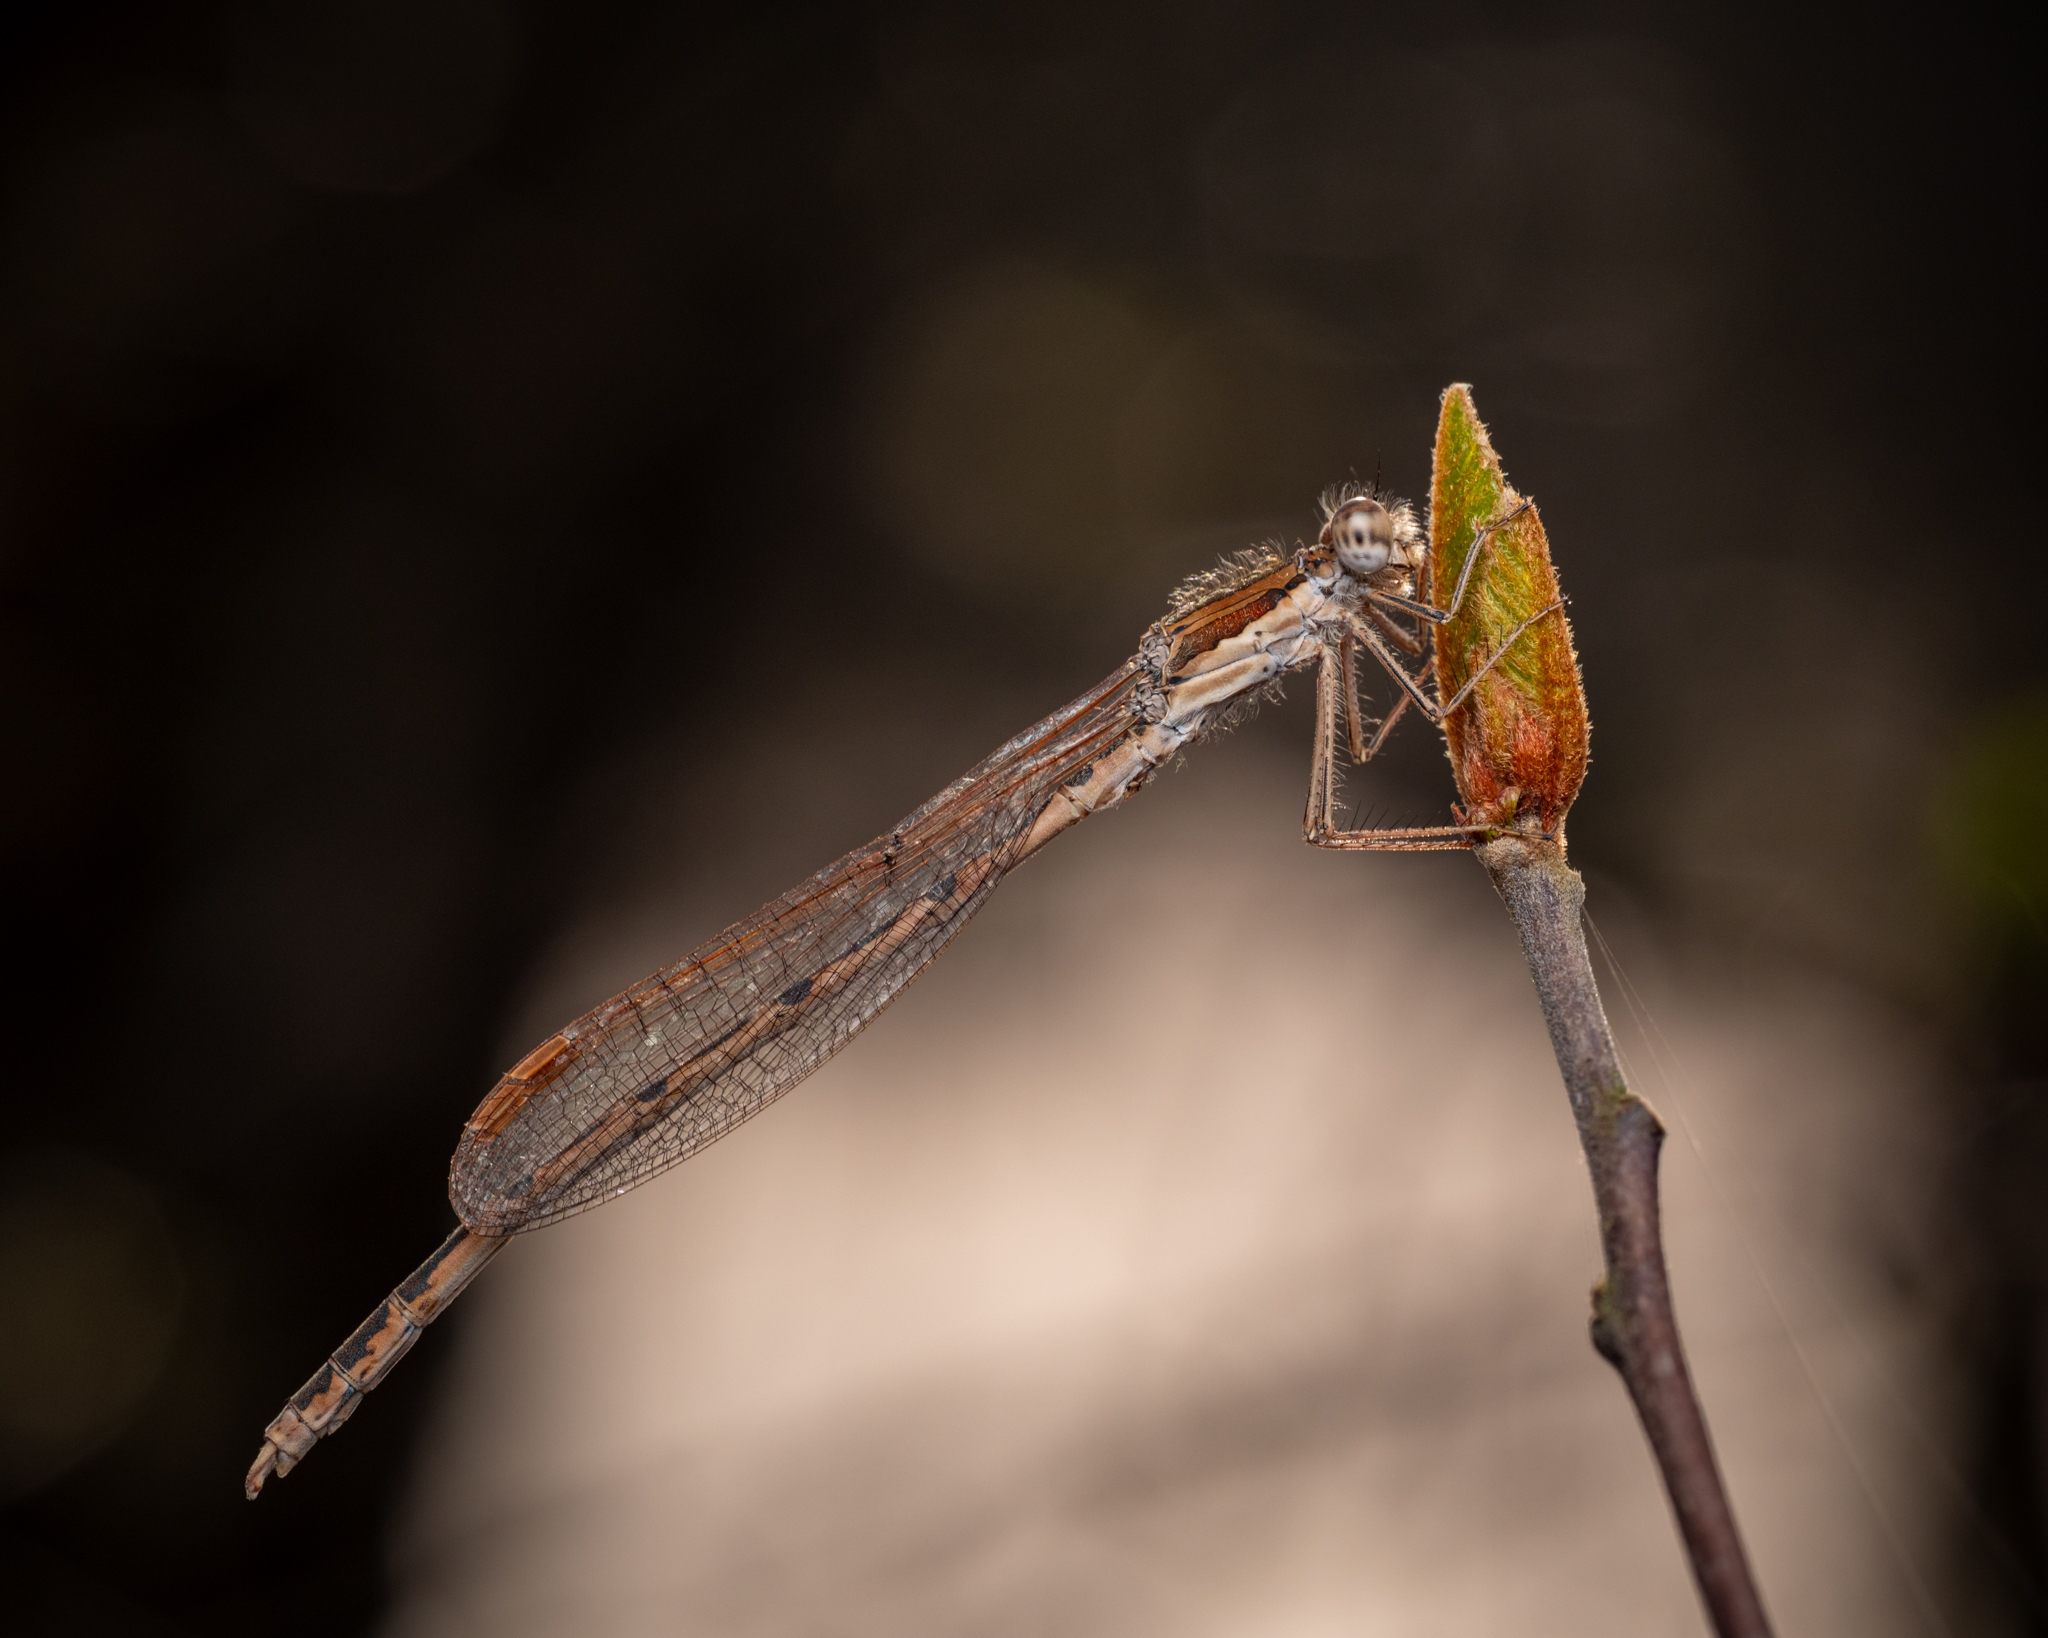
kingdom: Animalia
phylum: Arthropoda
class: Insecta
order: Odonata
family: Lestidae
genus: Sympecma
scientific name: Sympecma fusca
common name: Common winter damsel
